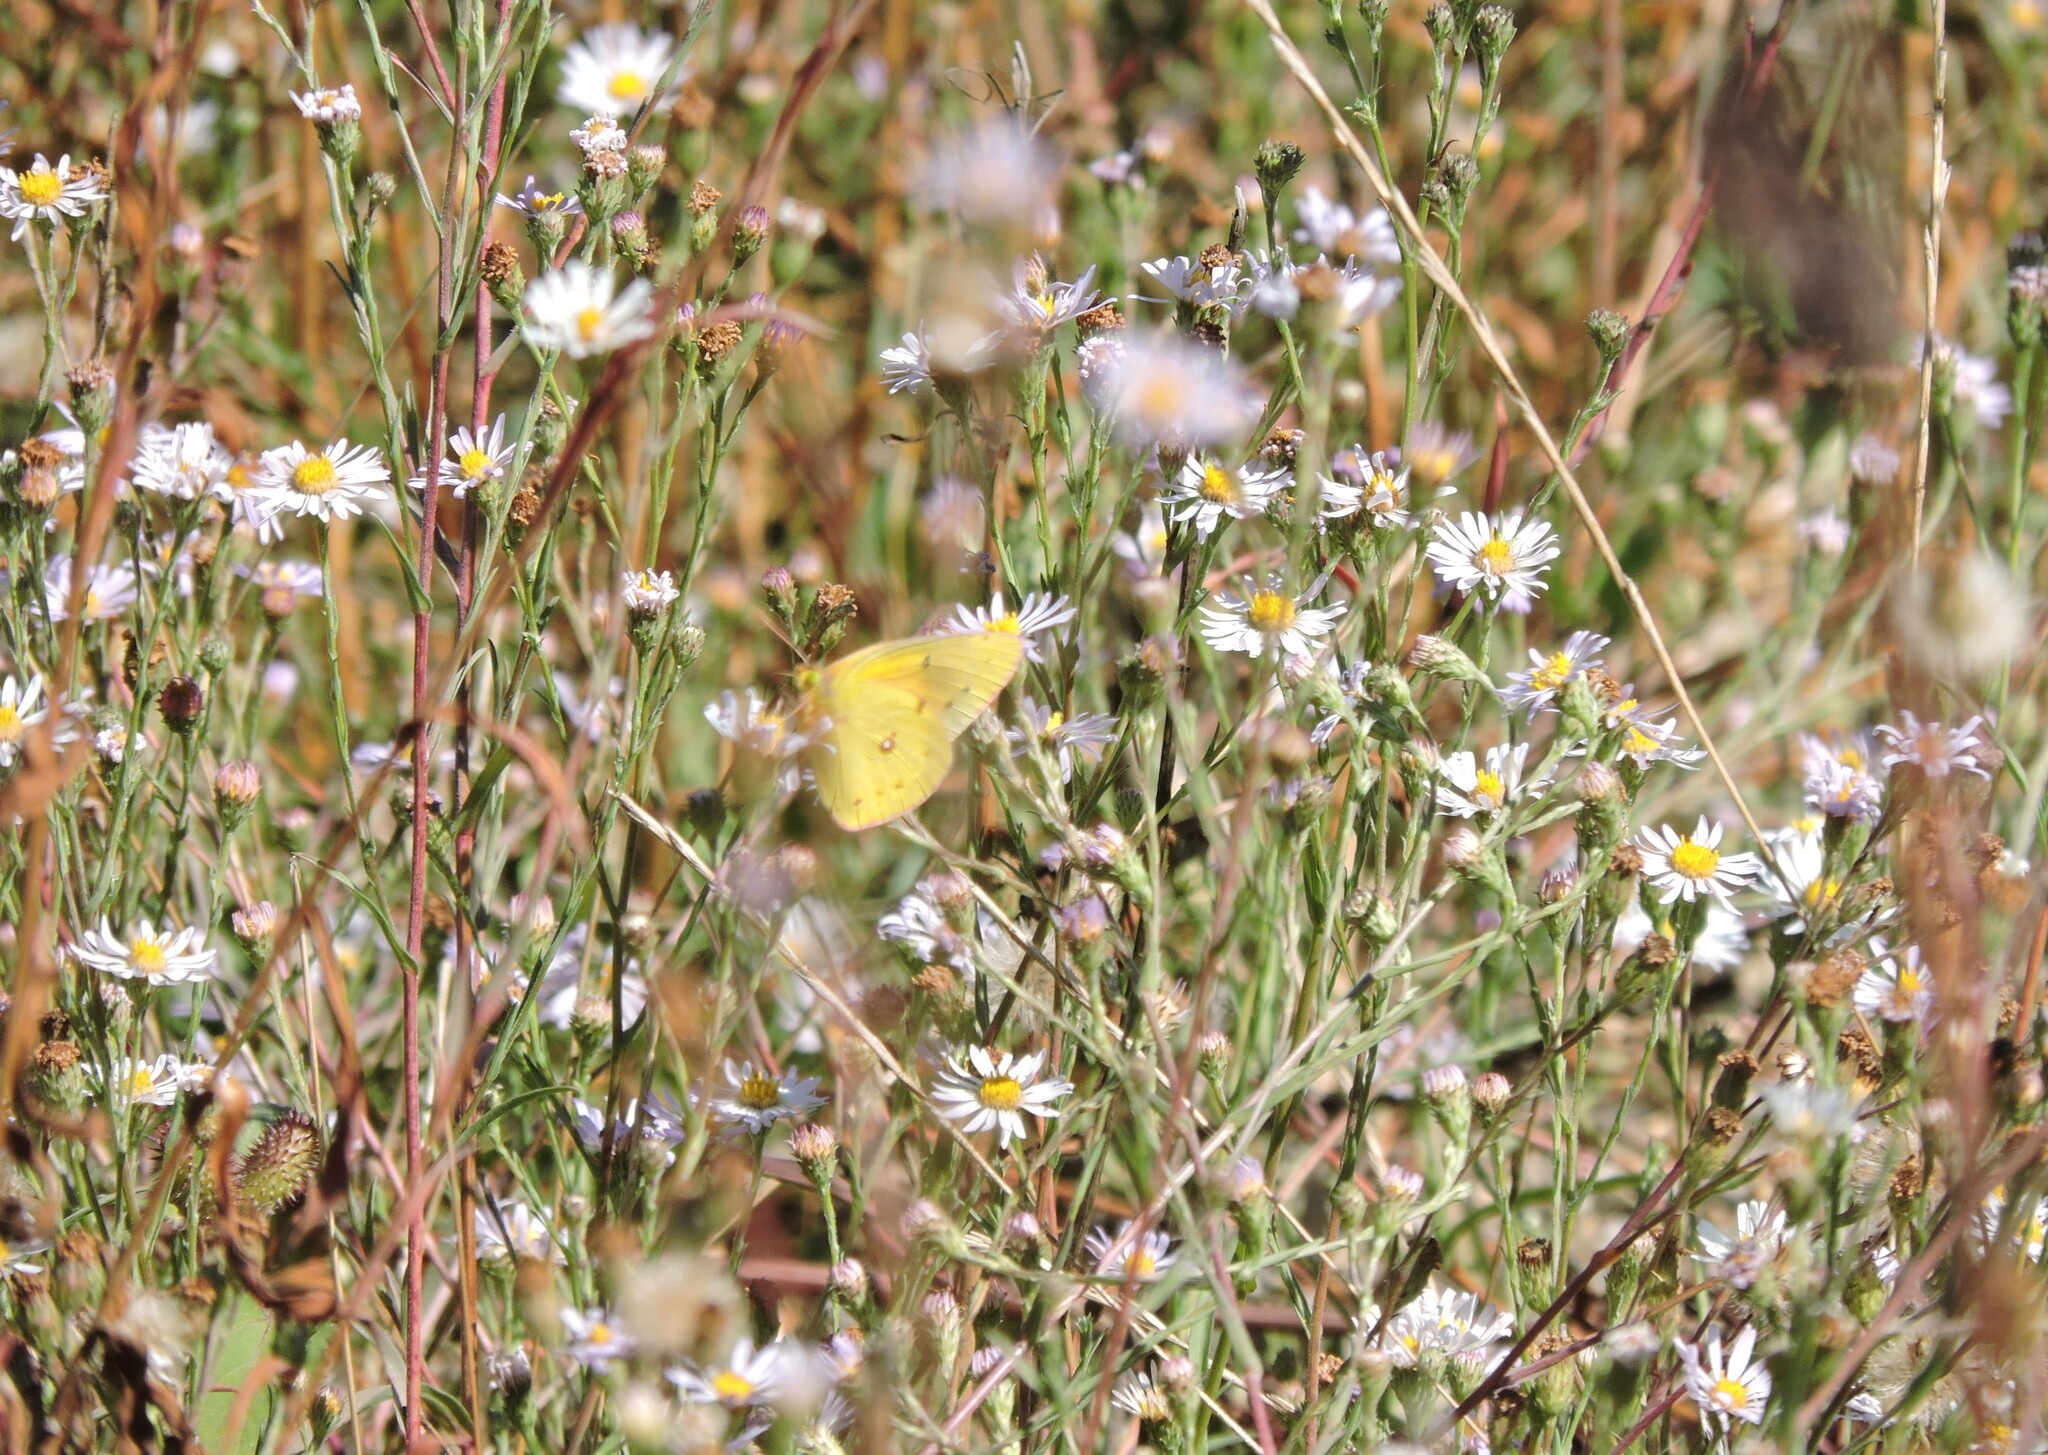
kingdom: Plantae
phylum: Tracheophyta
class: Magnoliopsida
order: Asterales
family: Asteraceae
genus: Symphyotrichum
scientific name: Symphyotrichum chilense
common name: Pacific aster
